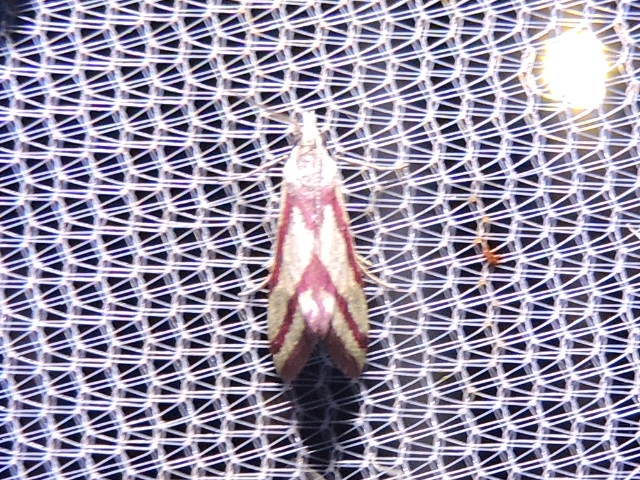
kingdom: Animalia
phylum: Arthropoda
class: Insecta
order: Lepidoptera
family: Crambidae
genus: Microtheoris
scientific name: Microtheoris vibicalis
